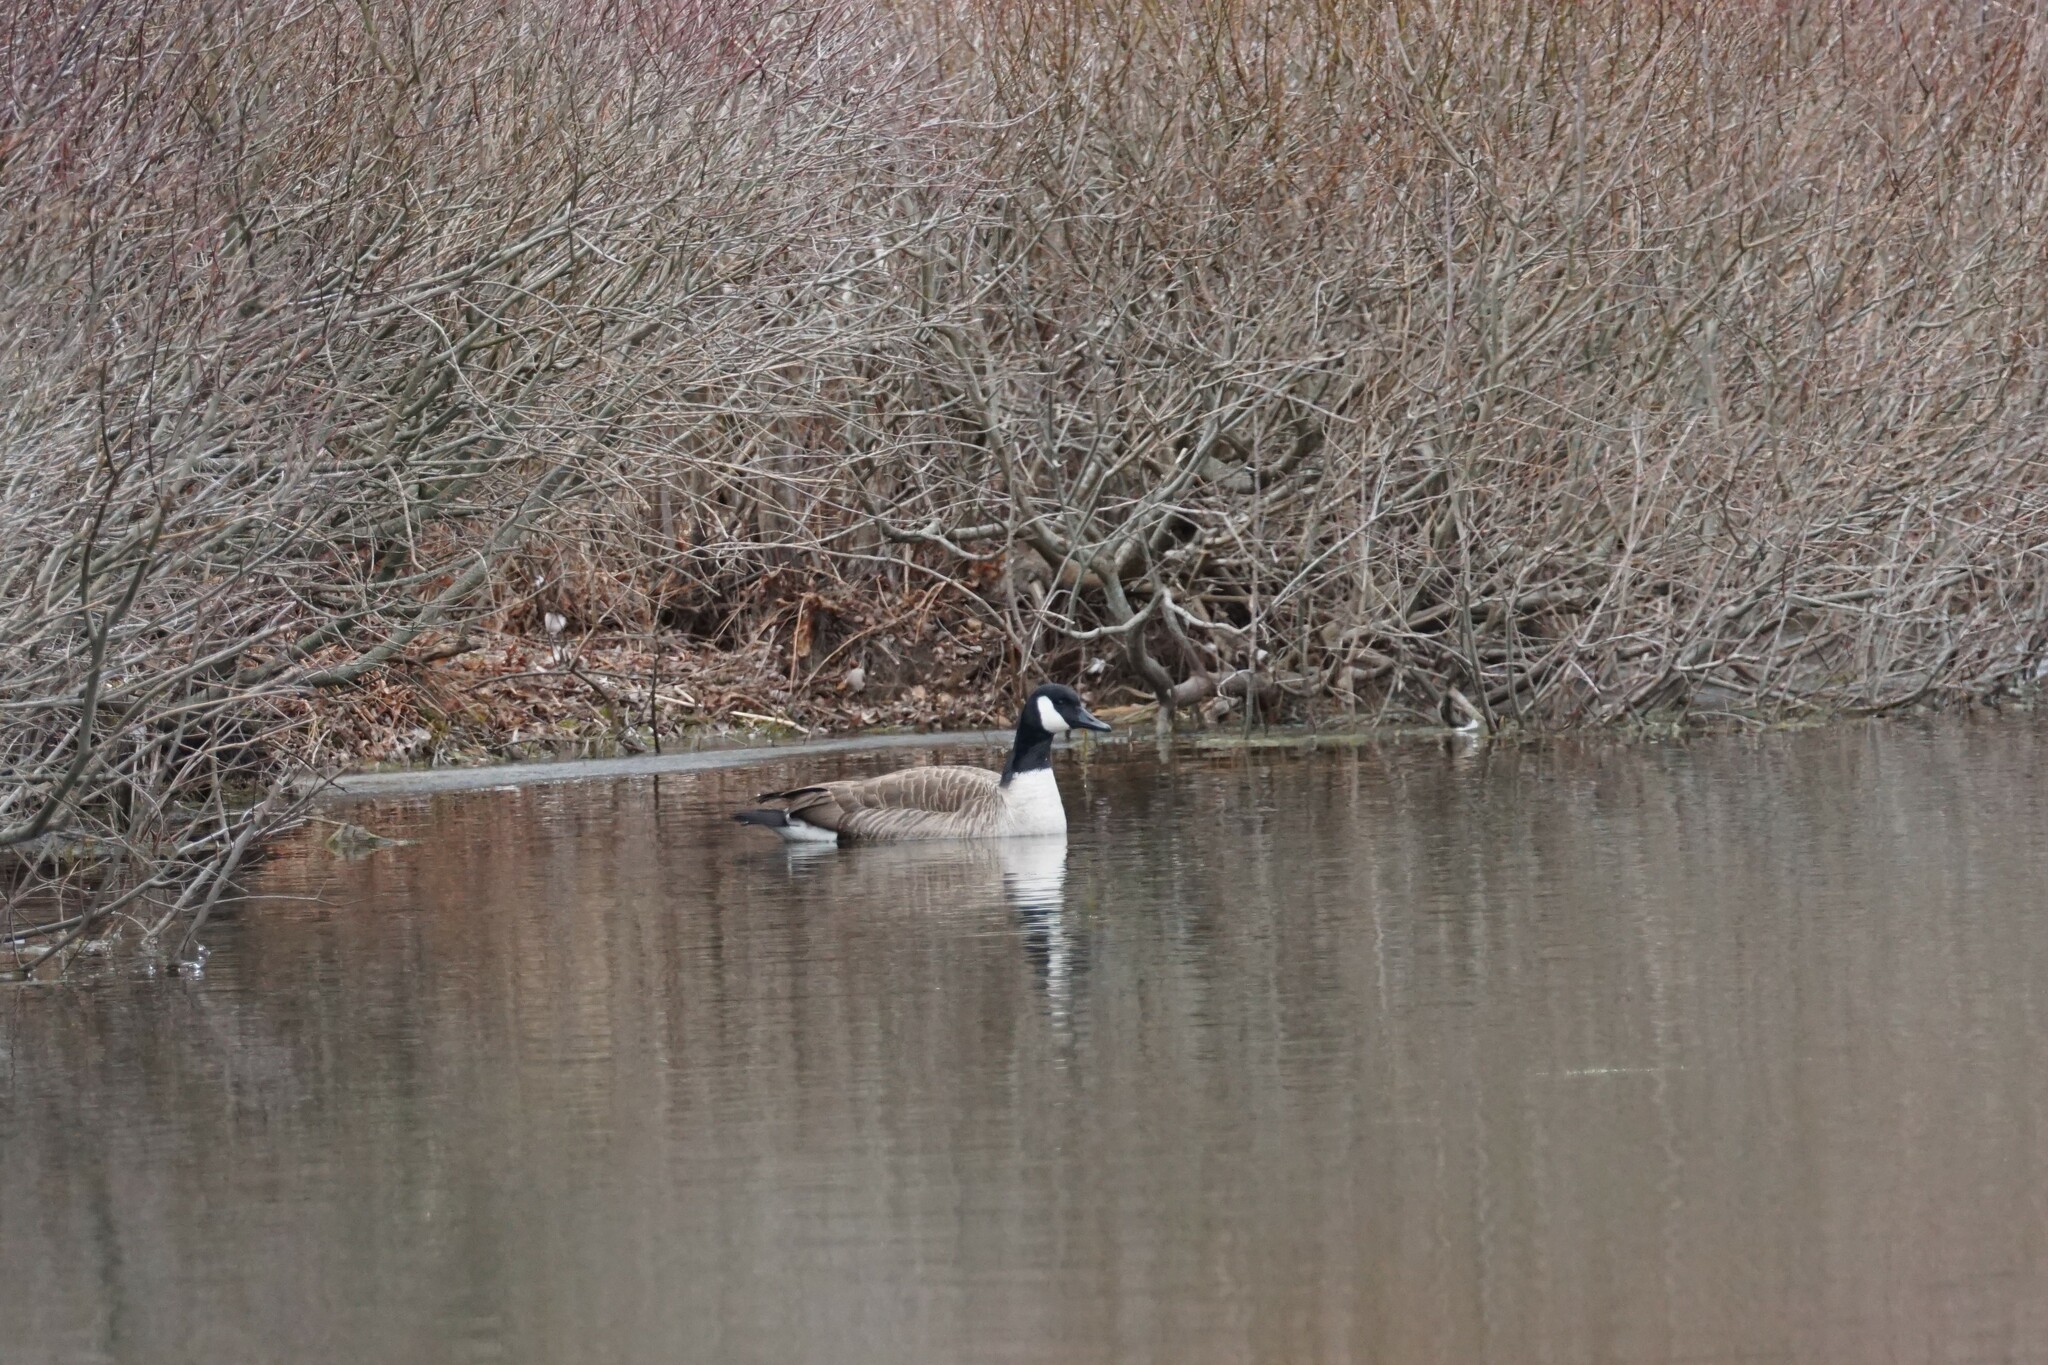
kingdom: Animalia
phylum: Chordata
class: Aves
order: Anseriformes
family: Anatidae
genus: Branta
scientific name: Branta canadensis
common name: Canada goose
